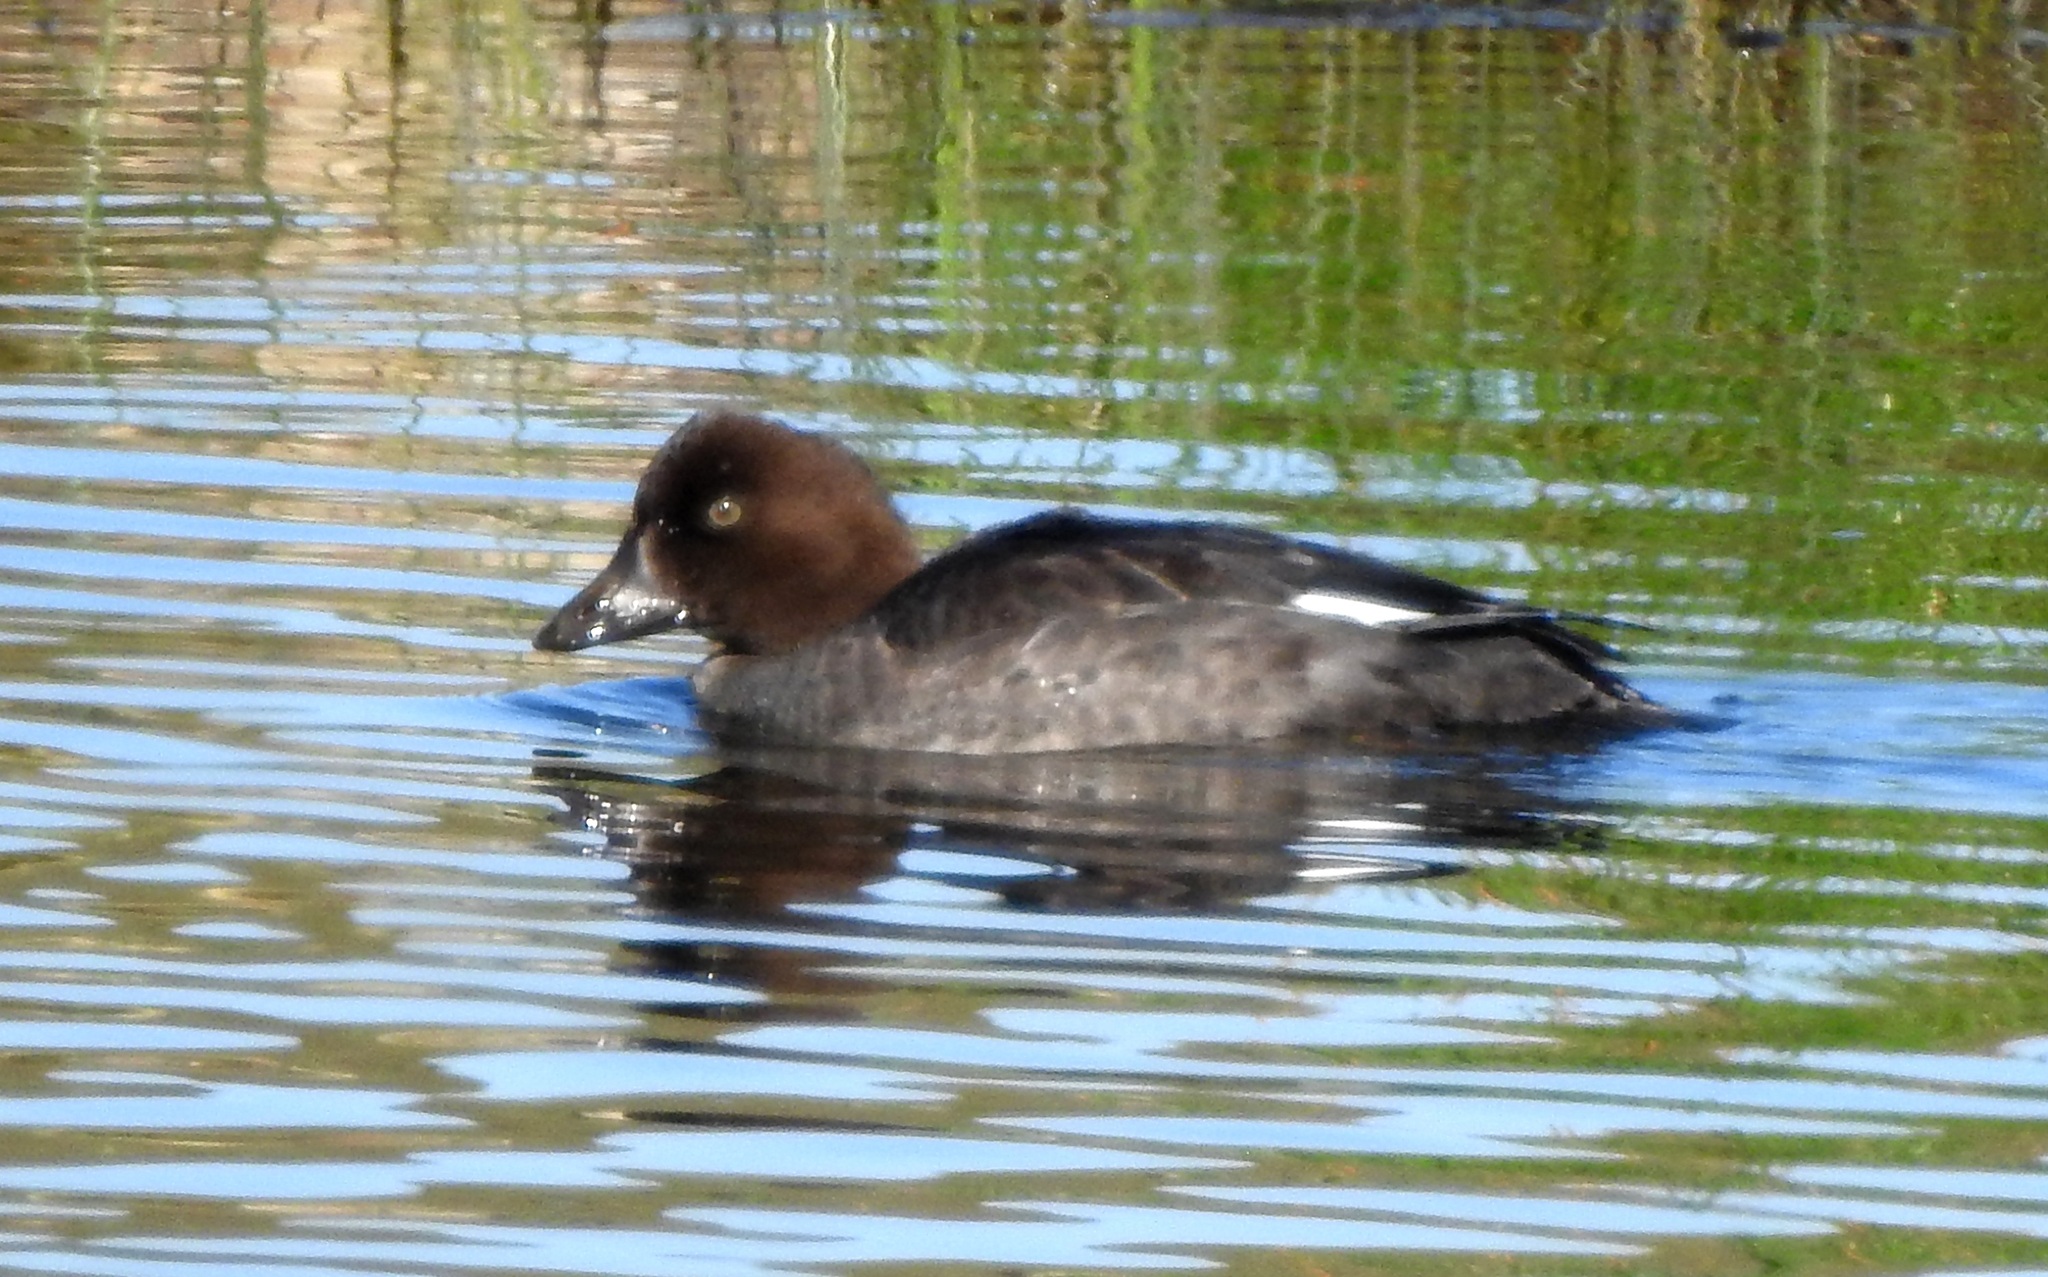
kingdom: Animalia
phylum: Chordata
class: Aves
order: Anseriformes
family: Anatidae
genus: Bucephala
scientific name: Bucephala clangula
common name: Common goldeneye
